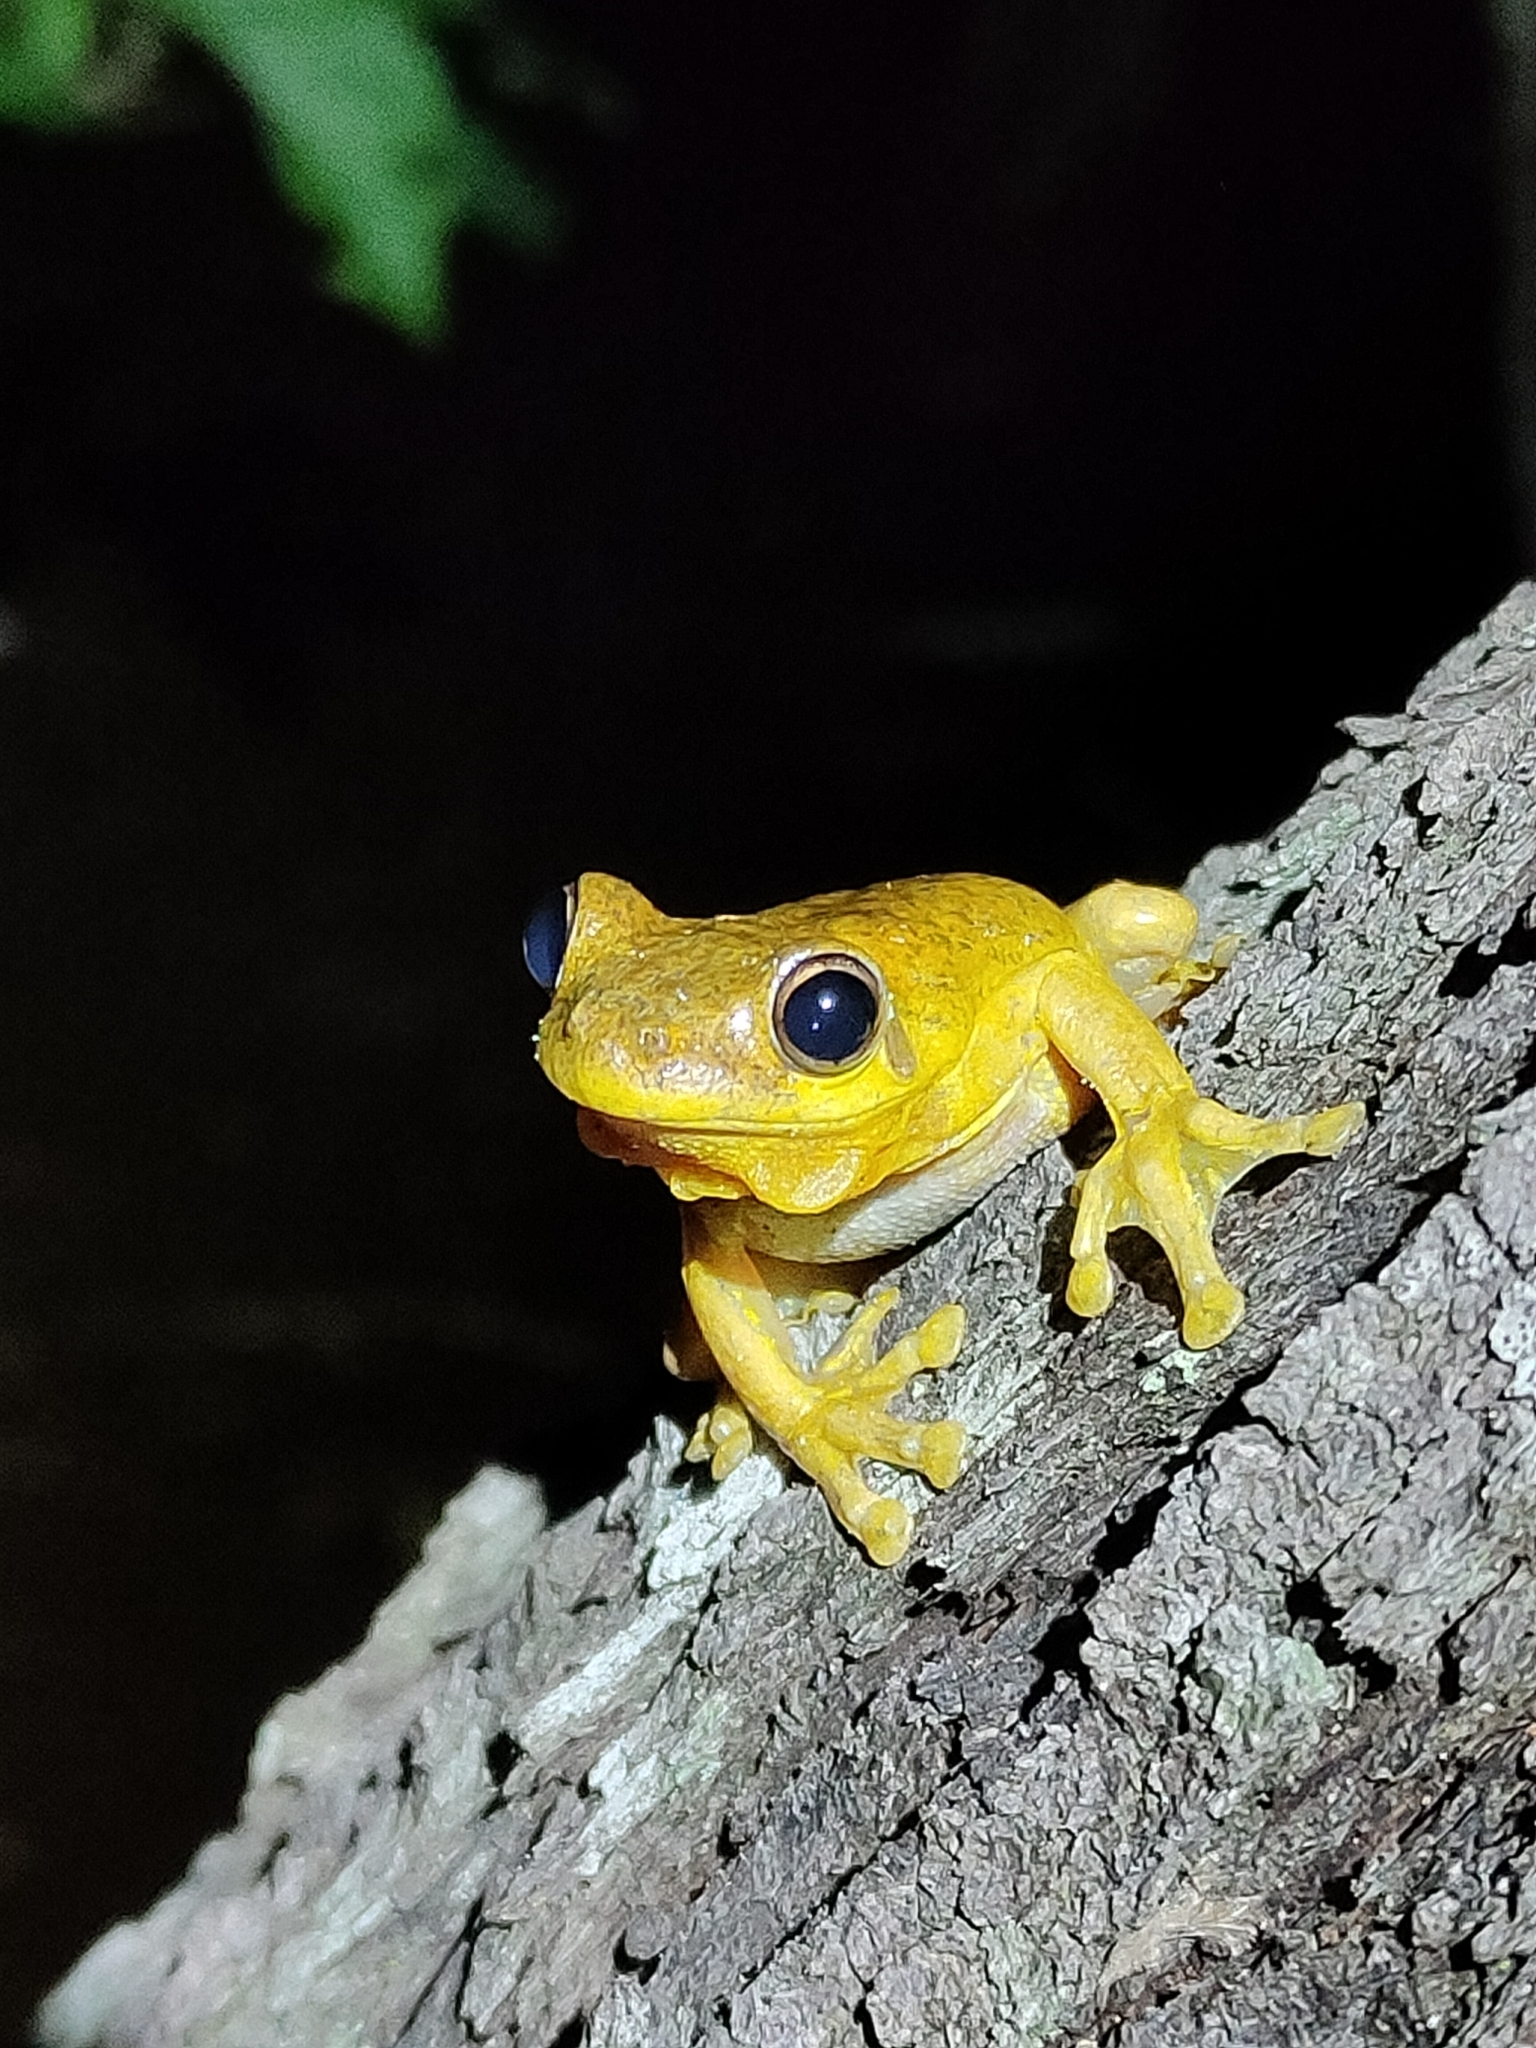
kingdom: Animalia
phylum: Chordata
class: Amphibia
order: Anura
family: Pelodryadidae
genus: Litoria
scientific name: Litoria tyleri
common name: Laughing tree frog
